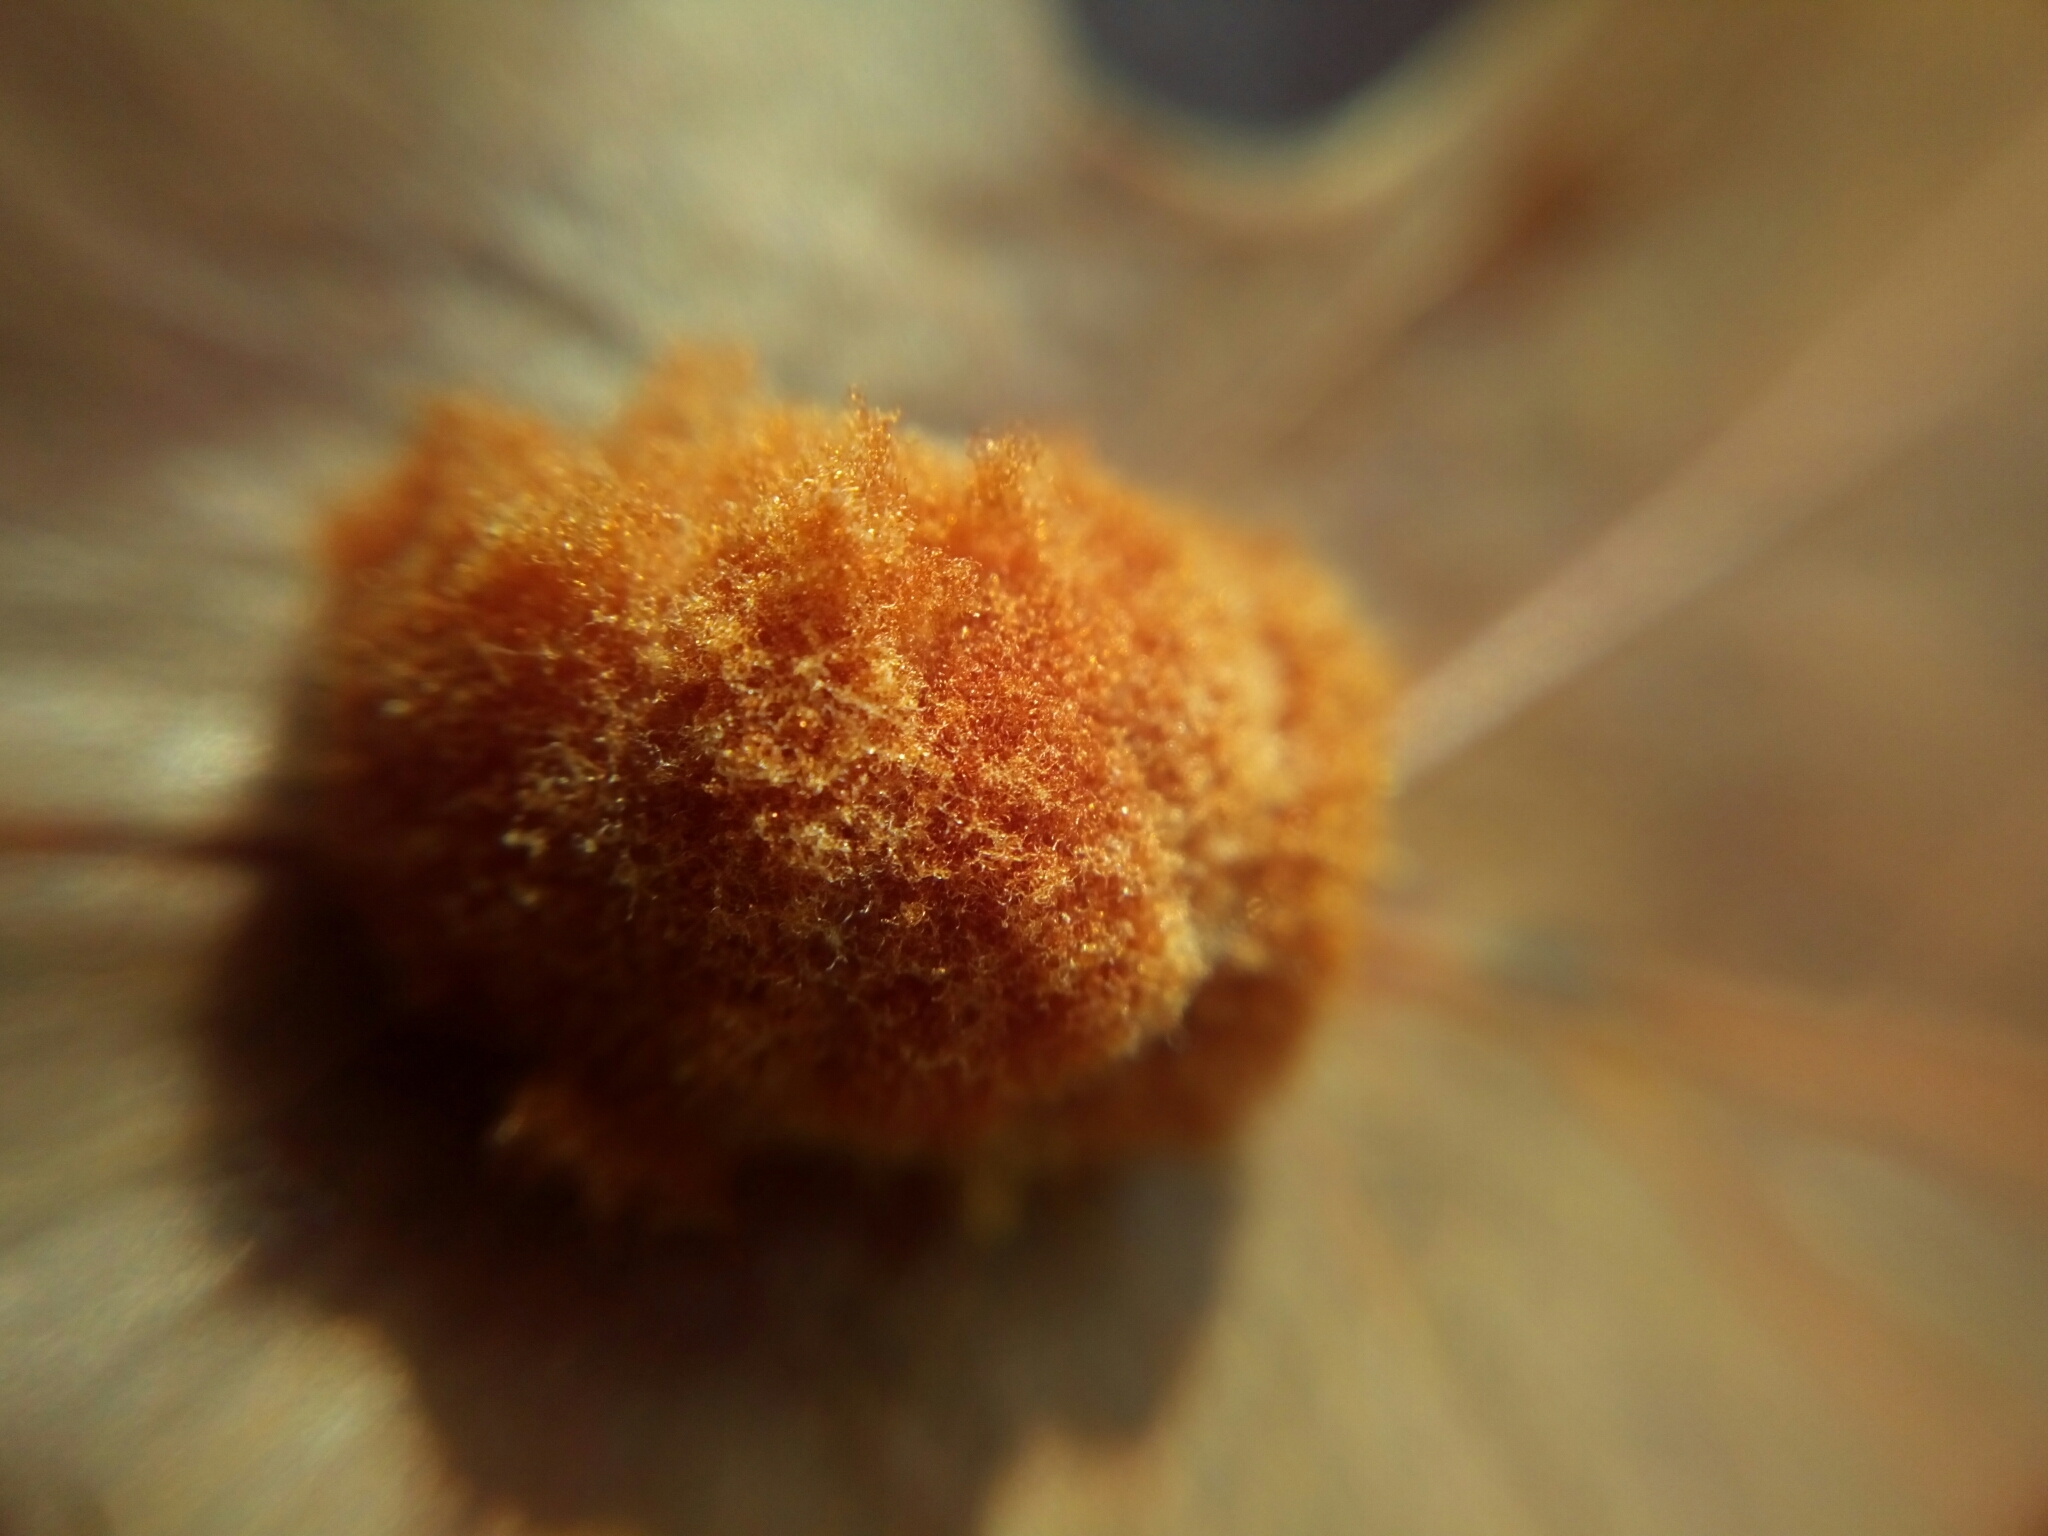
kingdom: Animalia
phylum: Arthropoda
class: Insecta
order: Hymenoptera
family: Cynipidae
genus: Andricus
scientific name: Andricus quercusflocci
